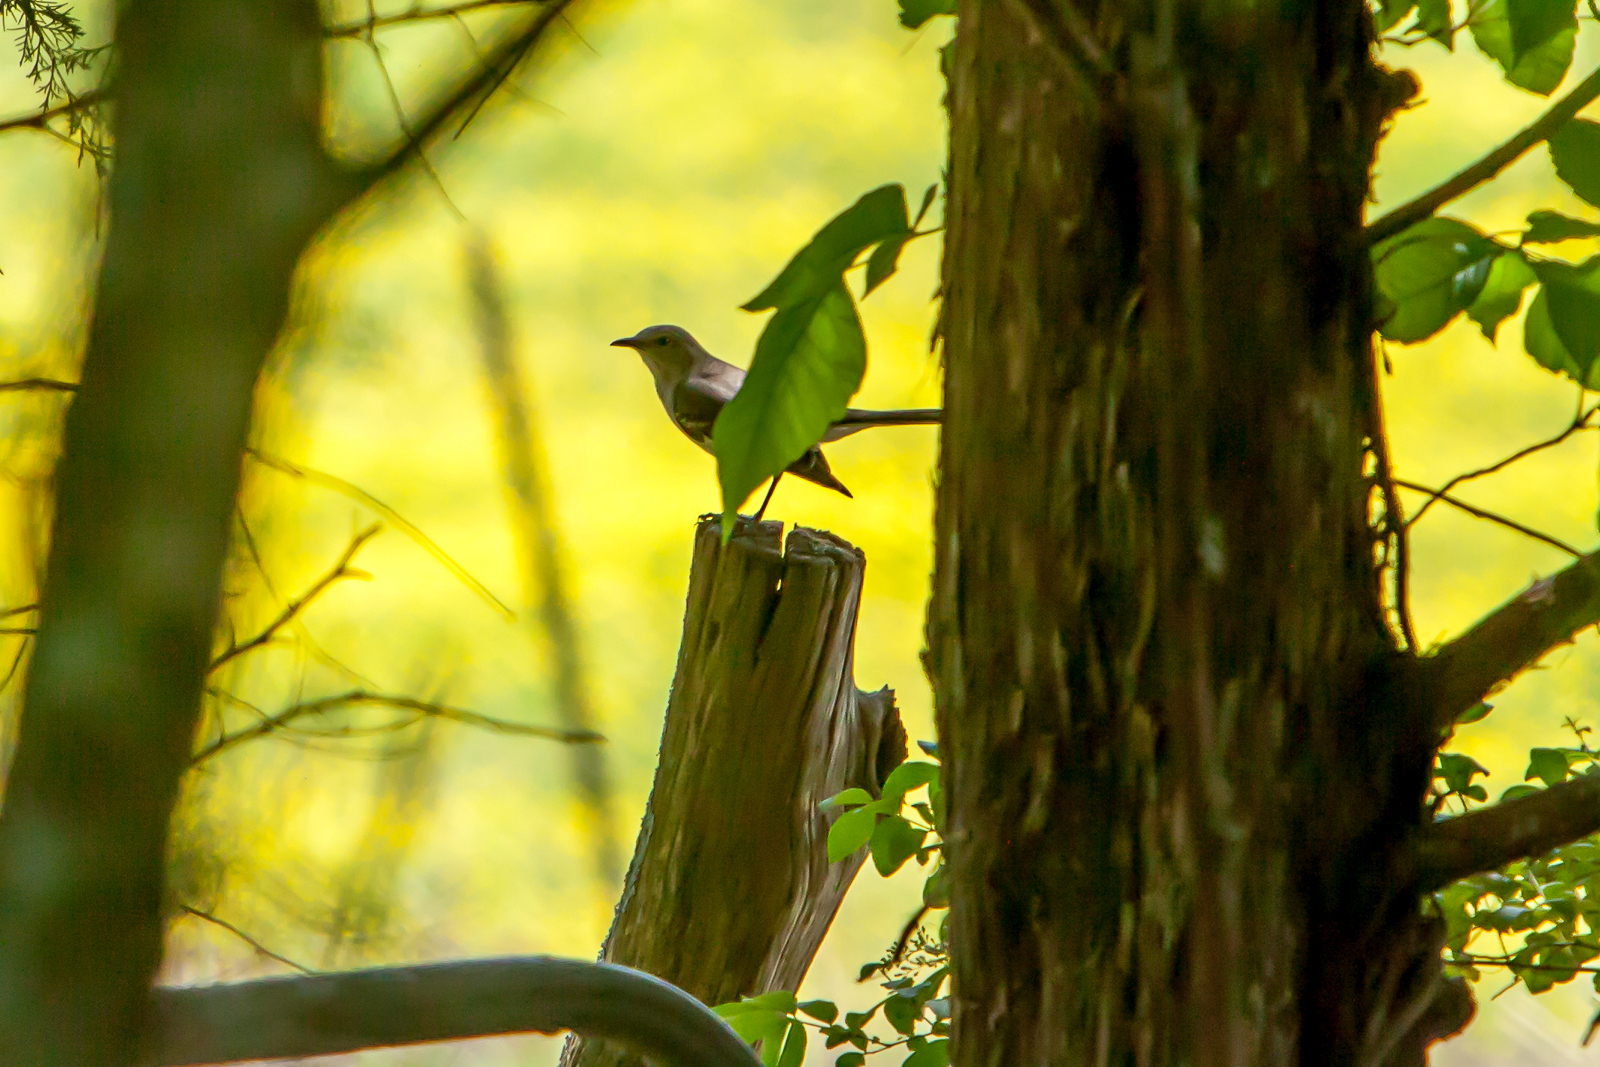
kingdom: Animalia
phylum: Chordata
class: Aves
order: Passeriformes
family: Mimidae
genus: Mimus
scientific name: Mimus polyglottos
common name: Northern mockingbird
